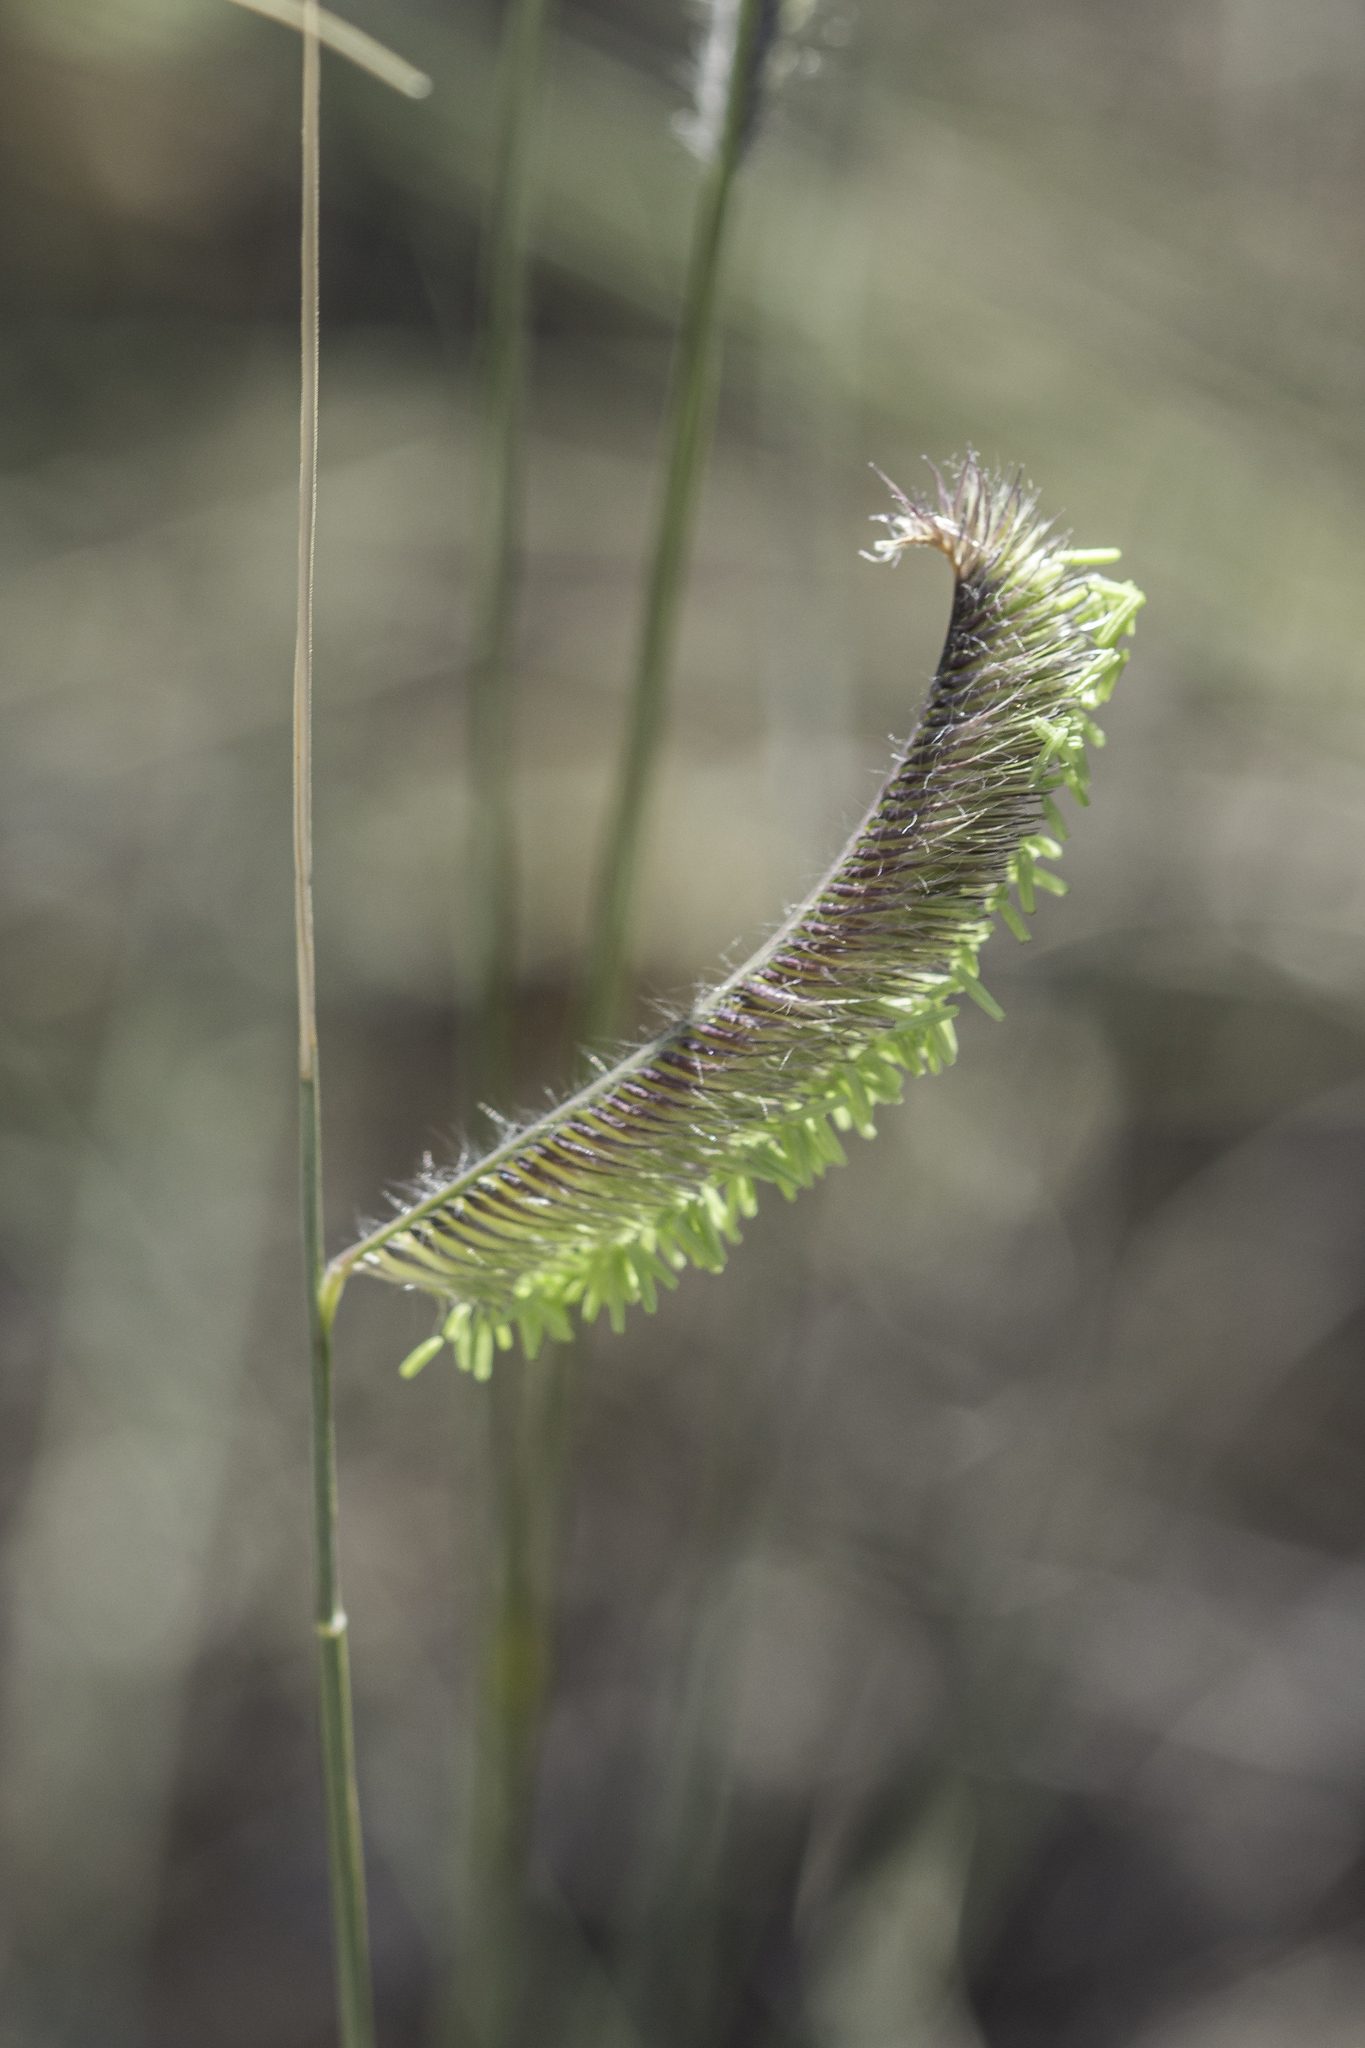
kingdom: Plantae
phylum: Tracheophyta
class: Liliopsida
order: Poales
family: Poaceae
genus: Bouteloua
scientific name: Bouteloua gracilis
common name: Blue grama
